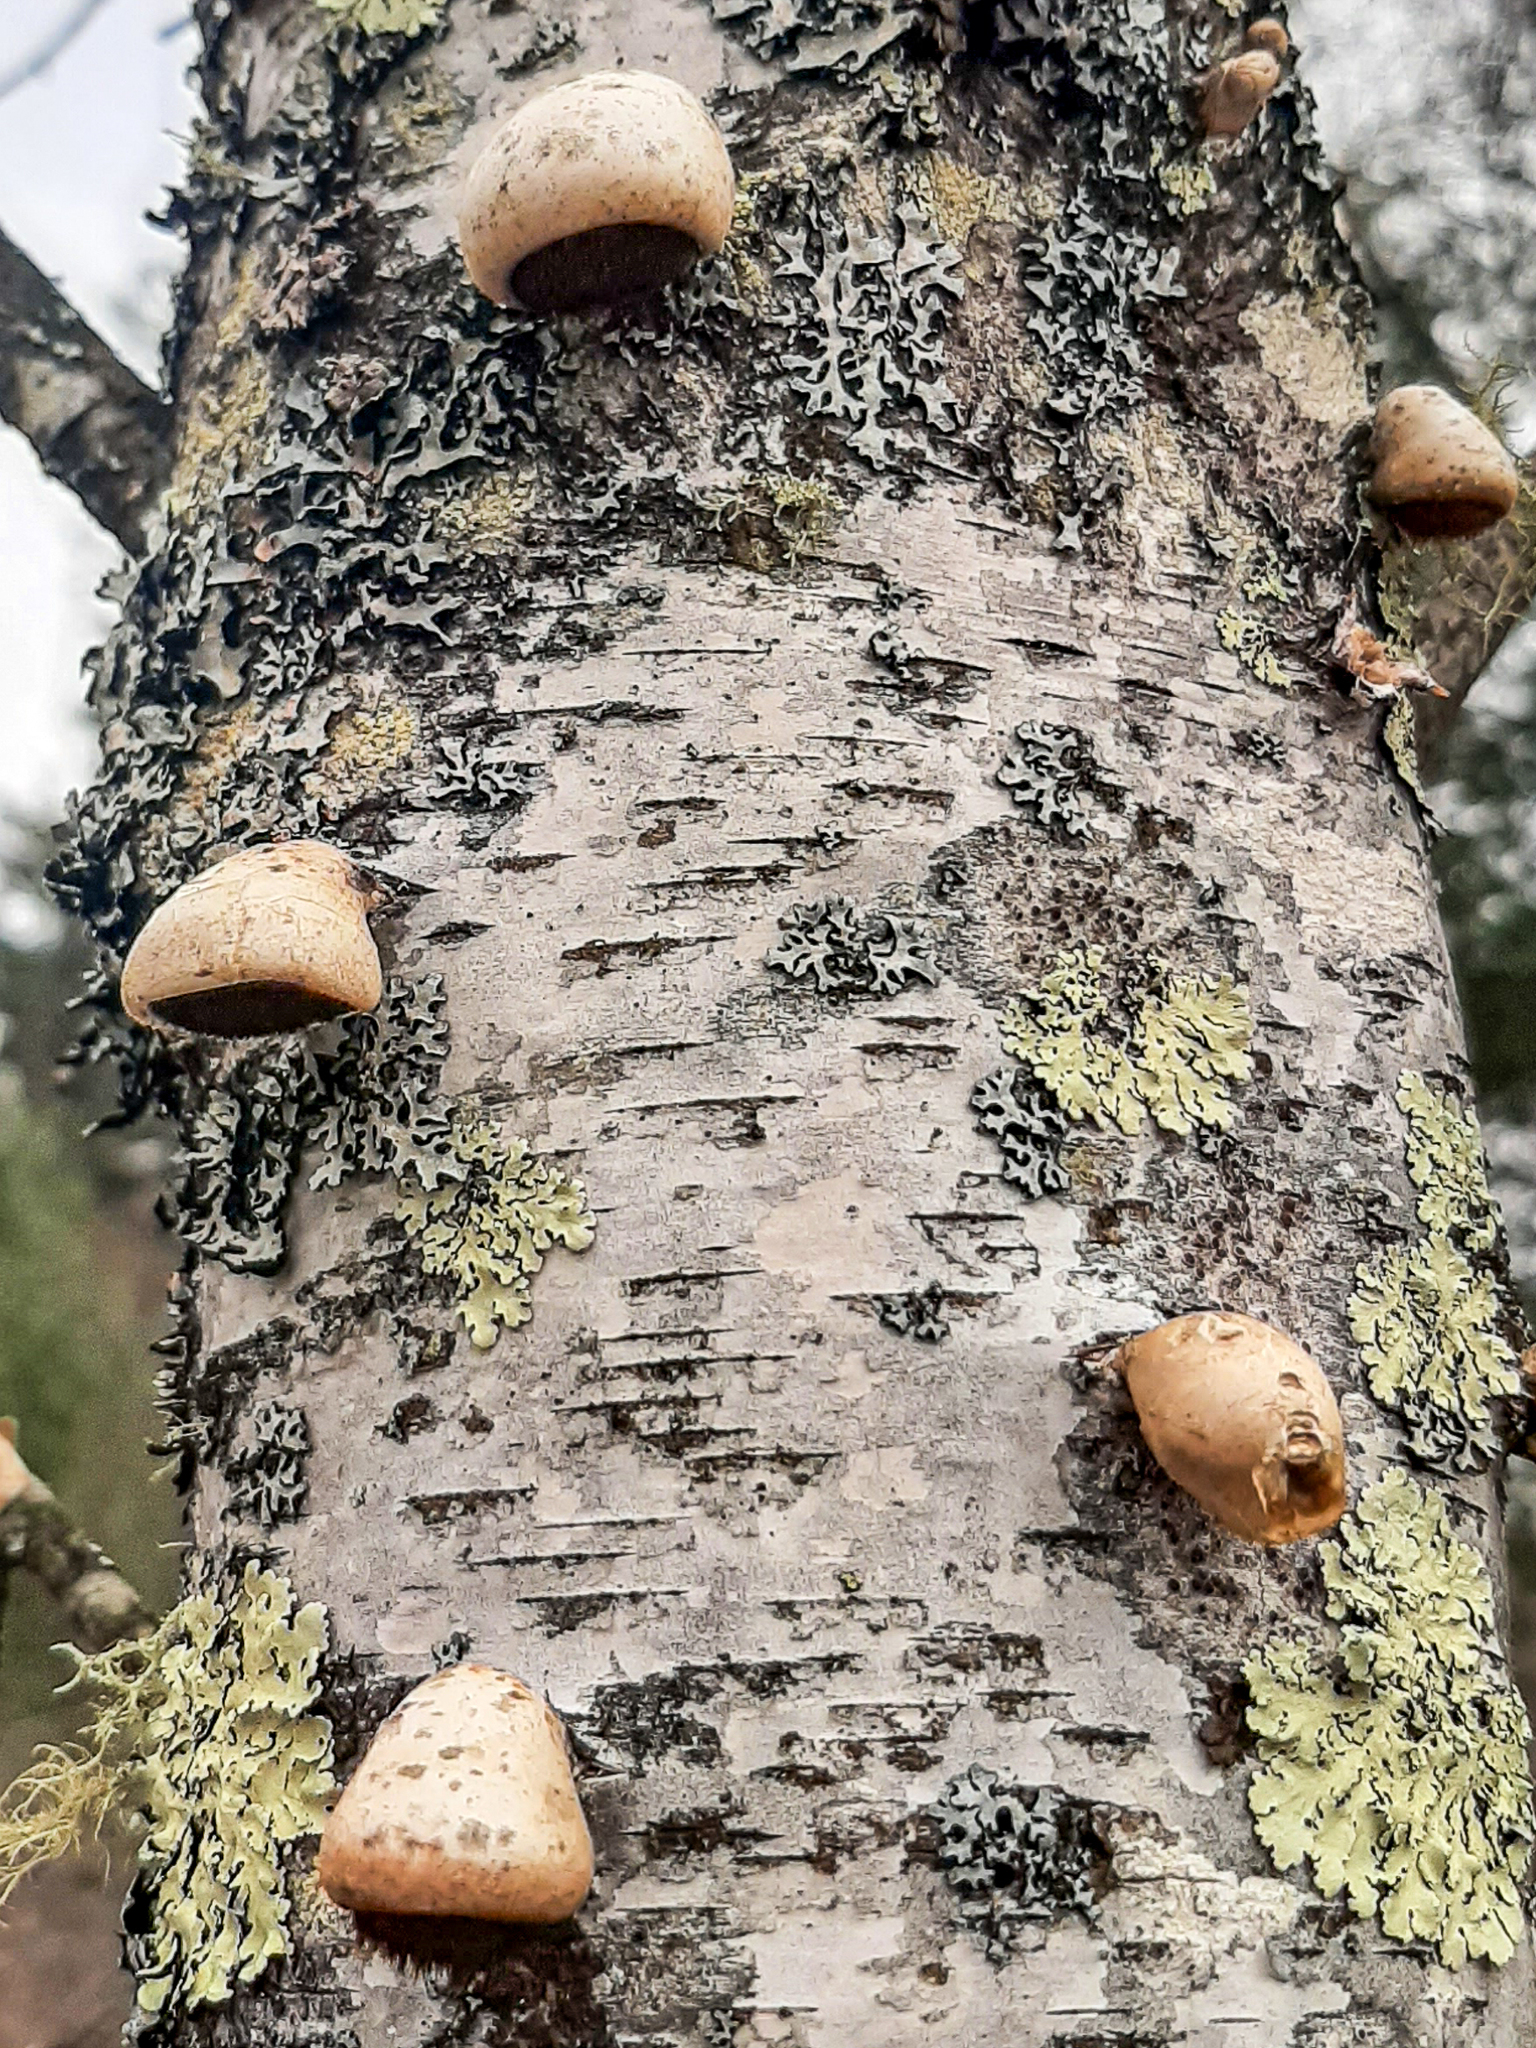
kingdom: Fungi
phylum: Basidiomycota
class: Agaricomycetes
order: Polyporales
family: Fomitopsidaceae
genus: Fomitopsis
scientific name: Fomitopsis betulina
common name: Birch polypore
